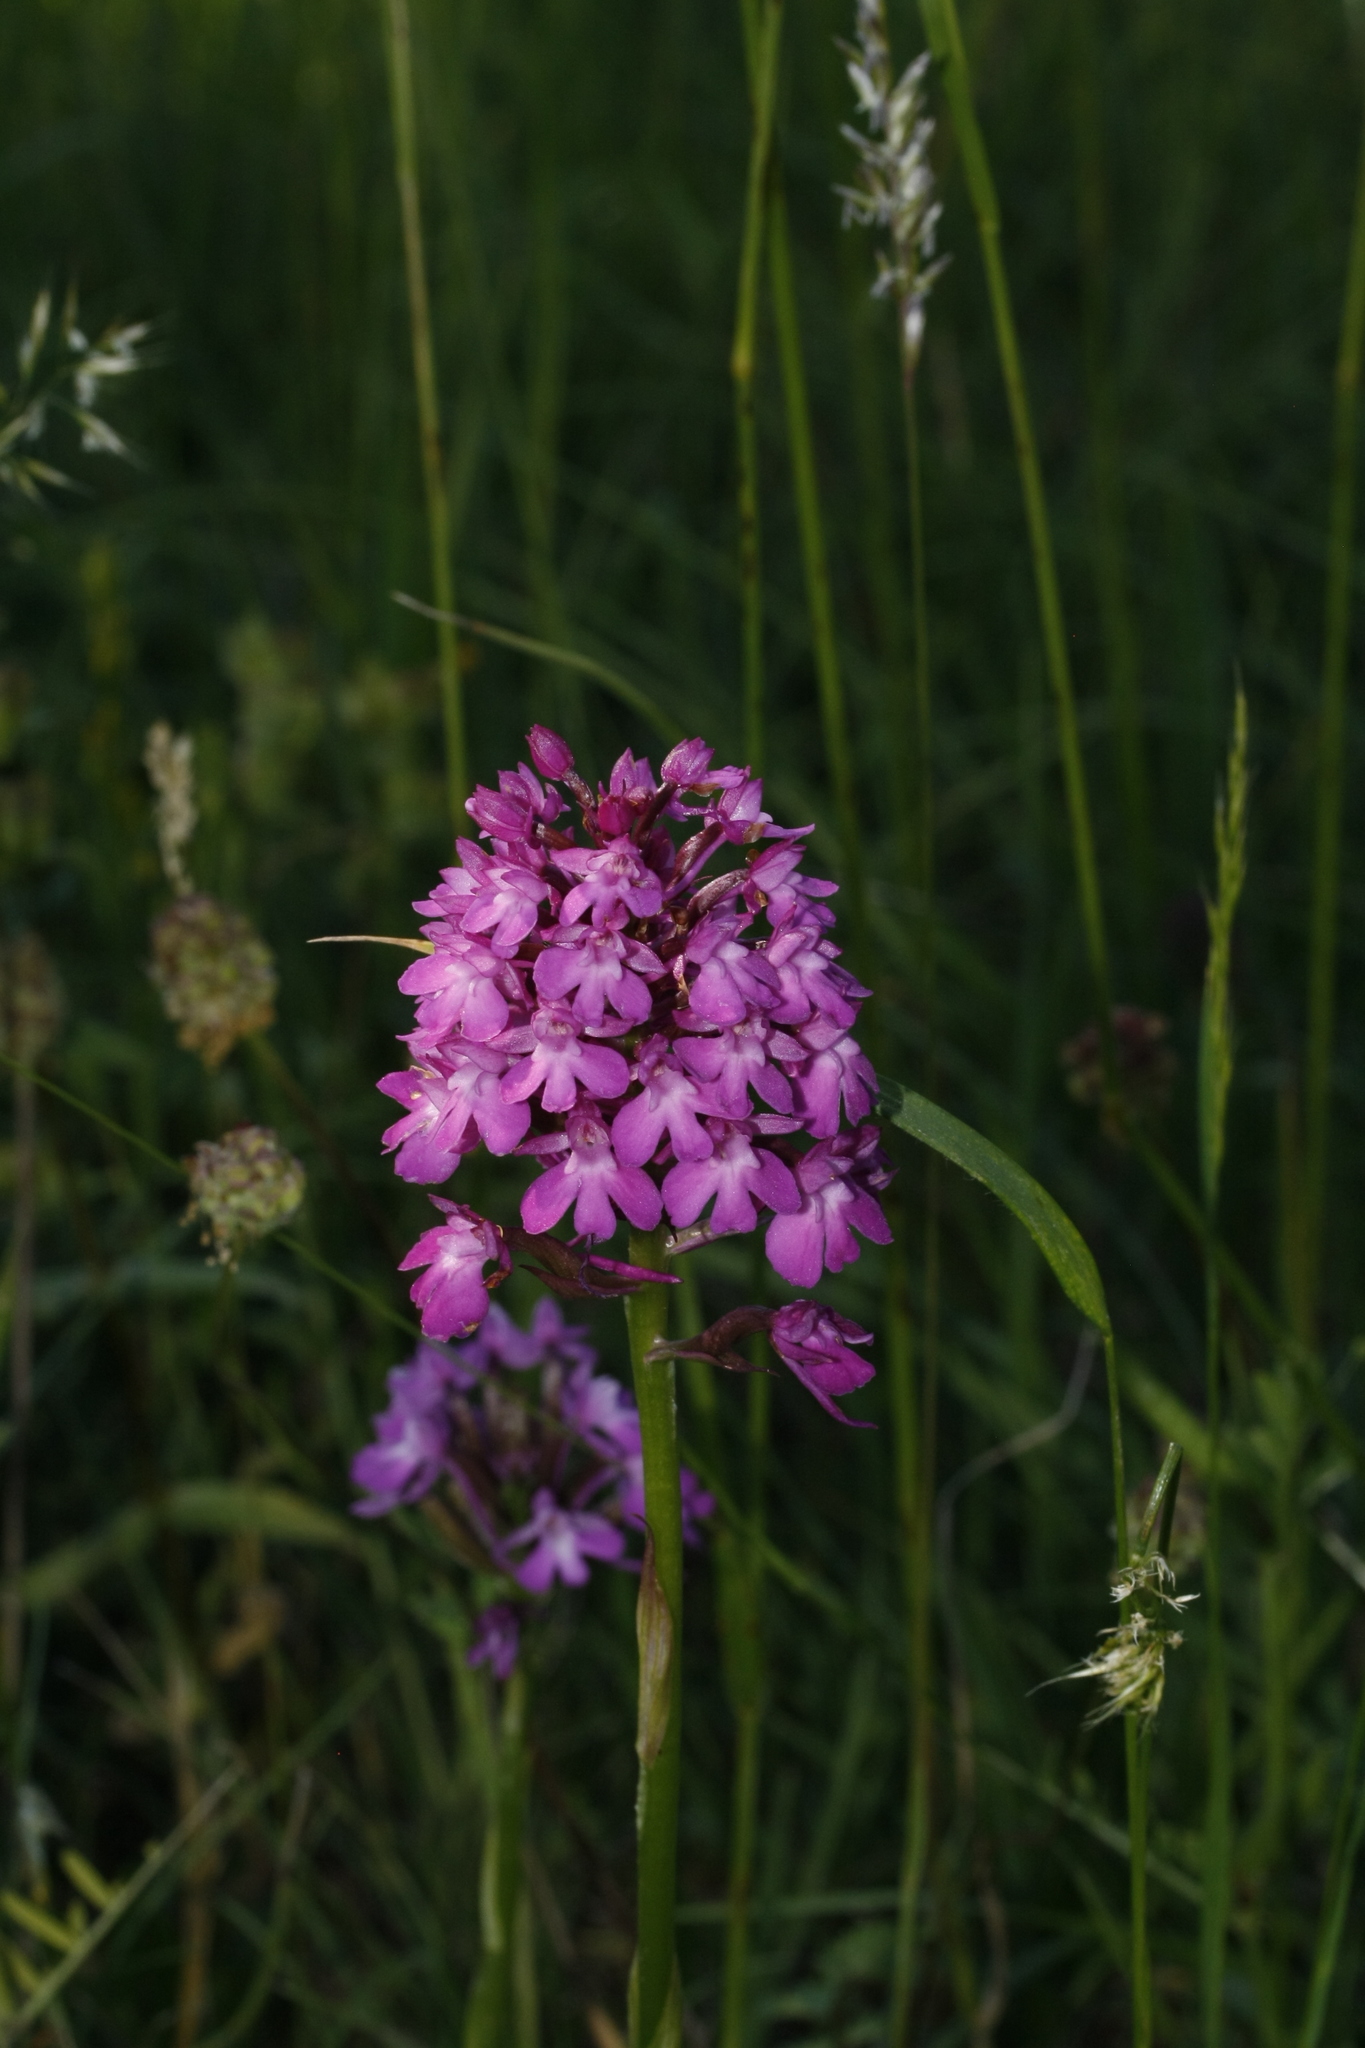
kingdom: Plantae
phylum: Tracheophyta
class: Liliopsida
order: Asparagales
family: Orchidaceae
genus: Anacamptis
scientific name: Anacamptis pyramidalis
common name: Pyramidal orchid
